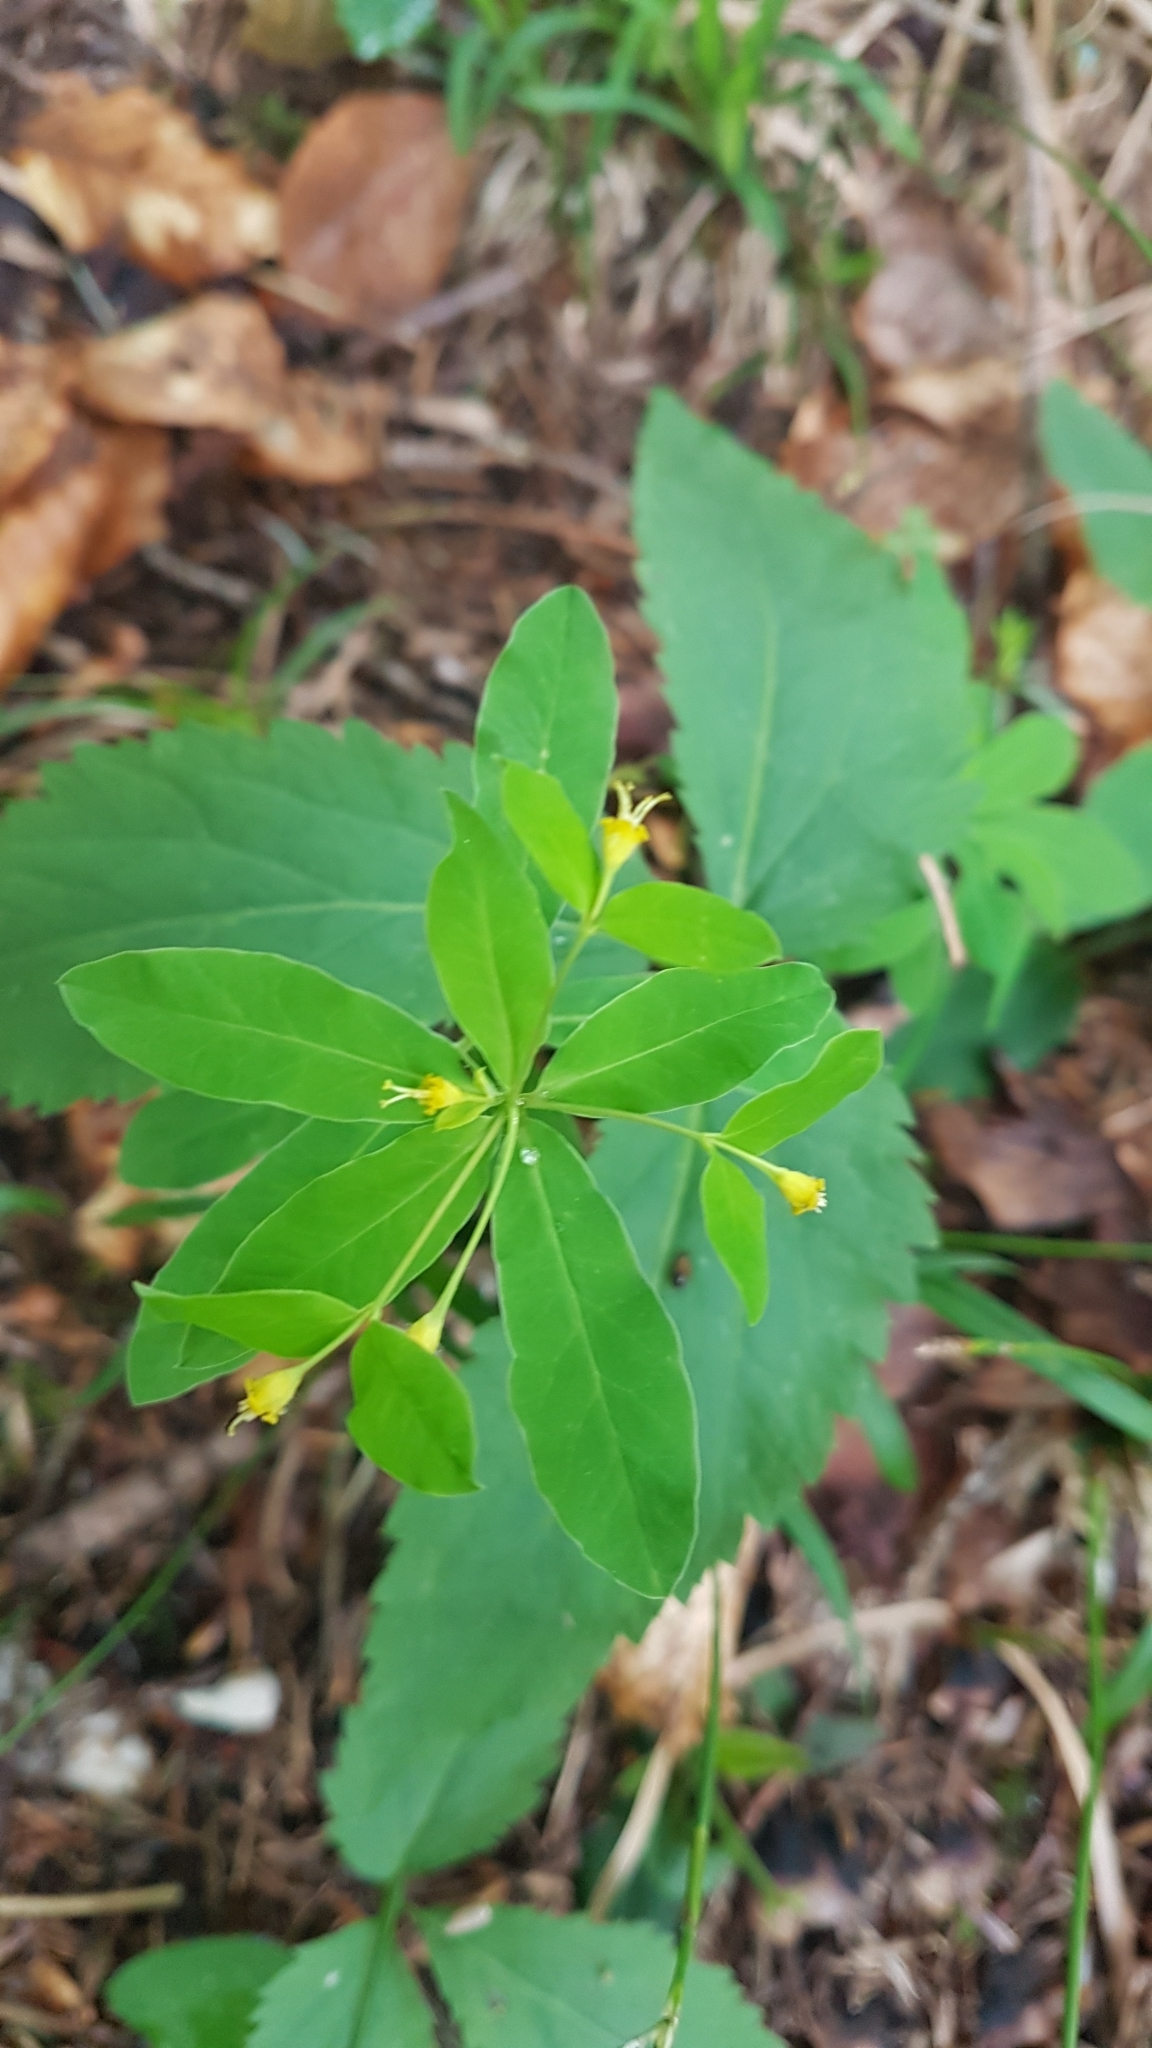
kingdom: Plantae
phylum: Tracheophyta
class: Magnoliopsida
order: Malpighiales
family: Euphorbiaceae
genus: Euphorbia
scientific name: Euphorbia carniolica
